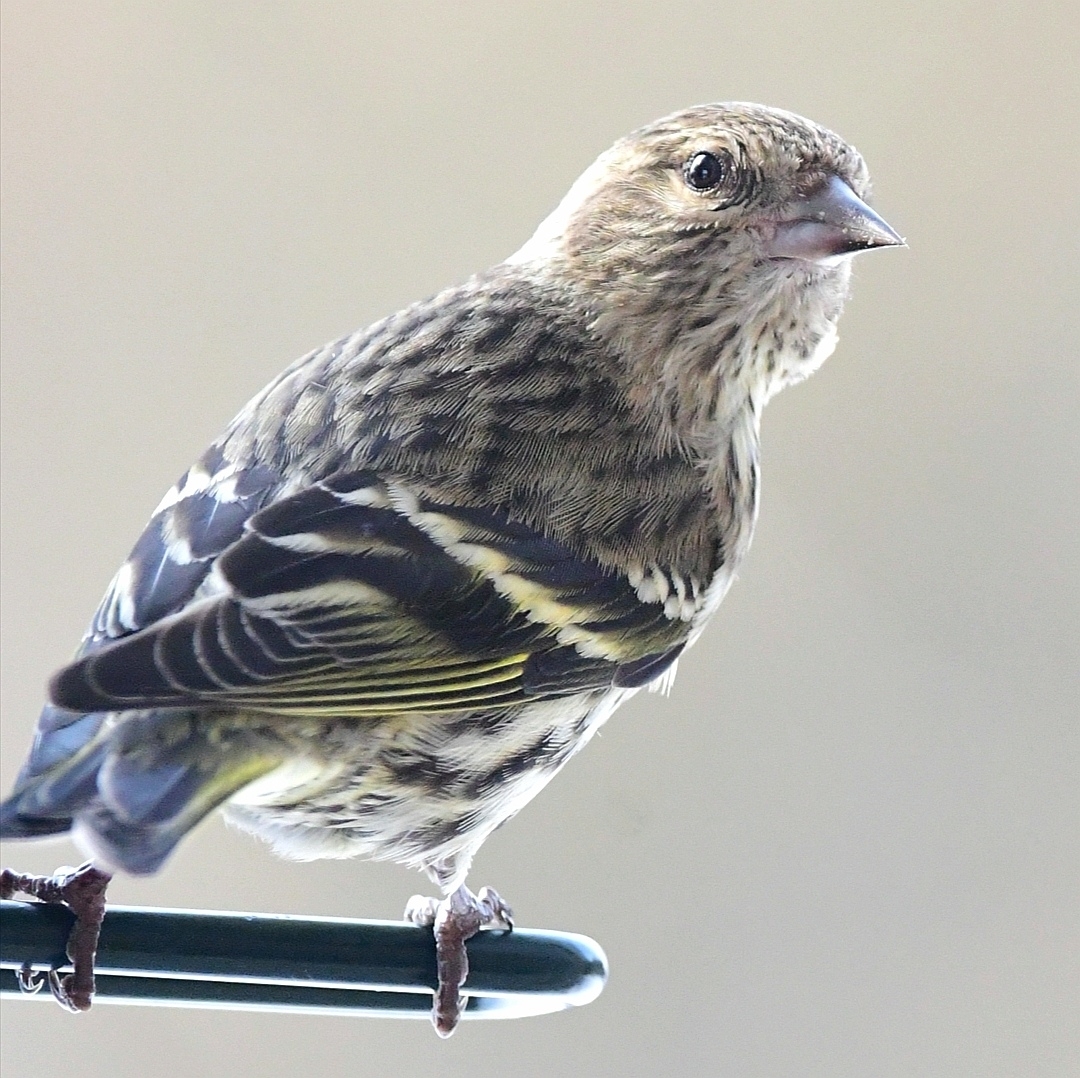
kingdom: Animalia
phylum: Chordata
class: Aves
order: Passeriformes
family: Fringillidae
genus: Spinus
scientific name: Spinus pinus
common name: Pine siskin
